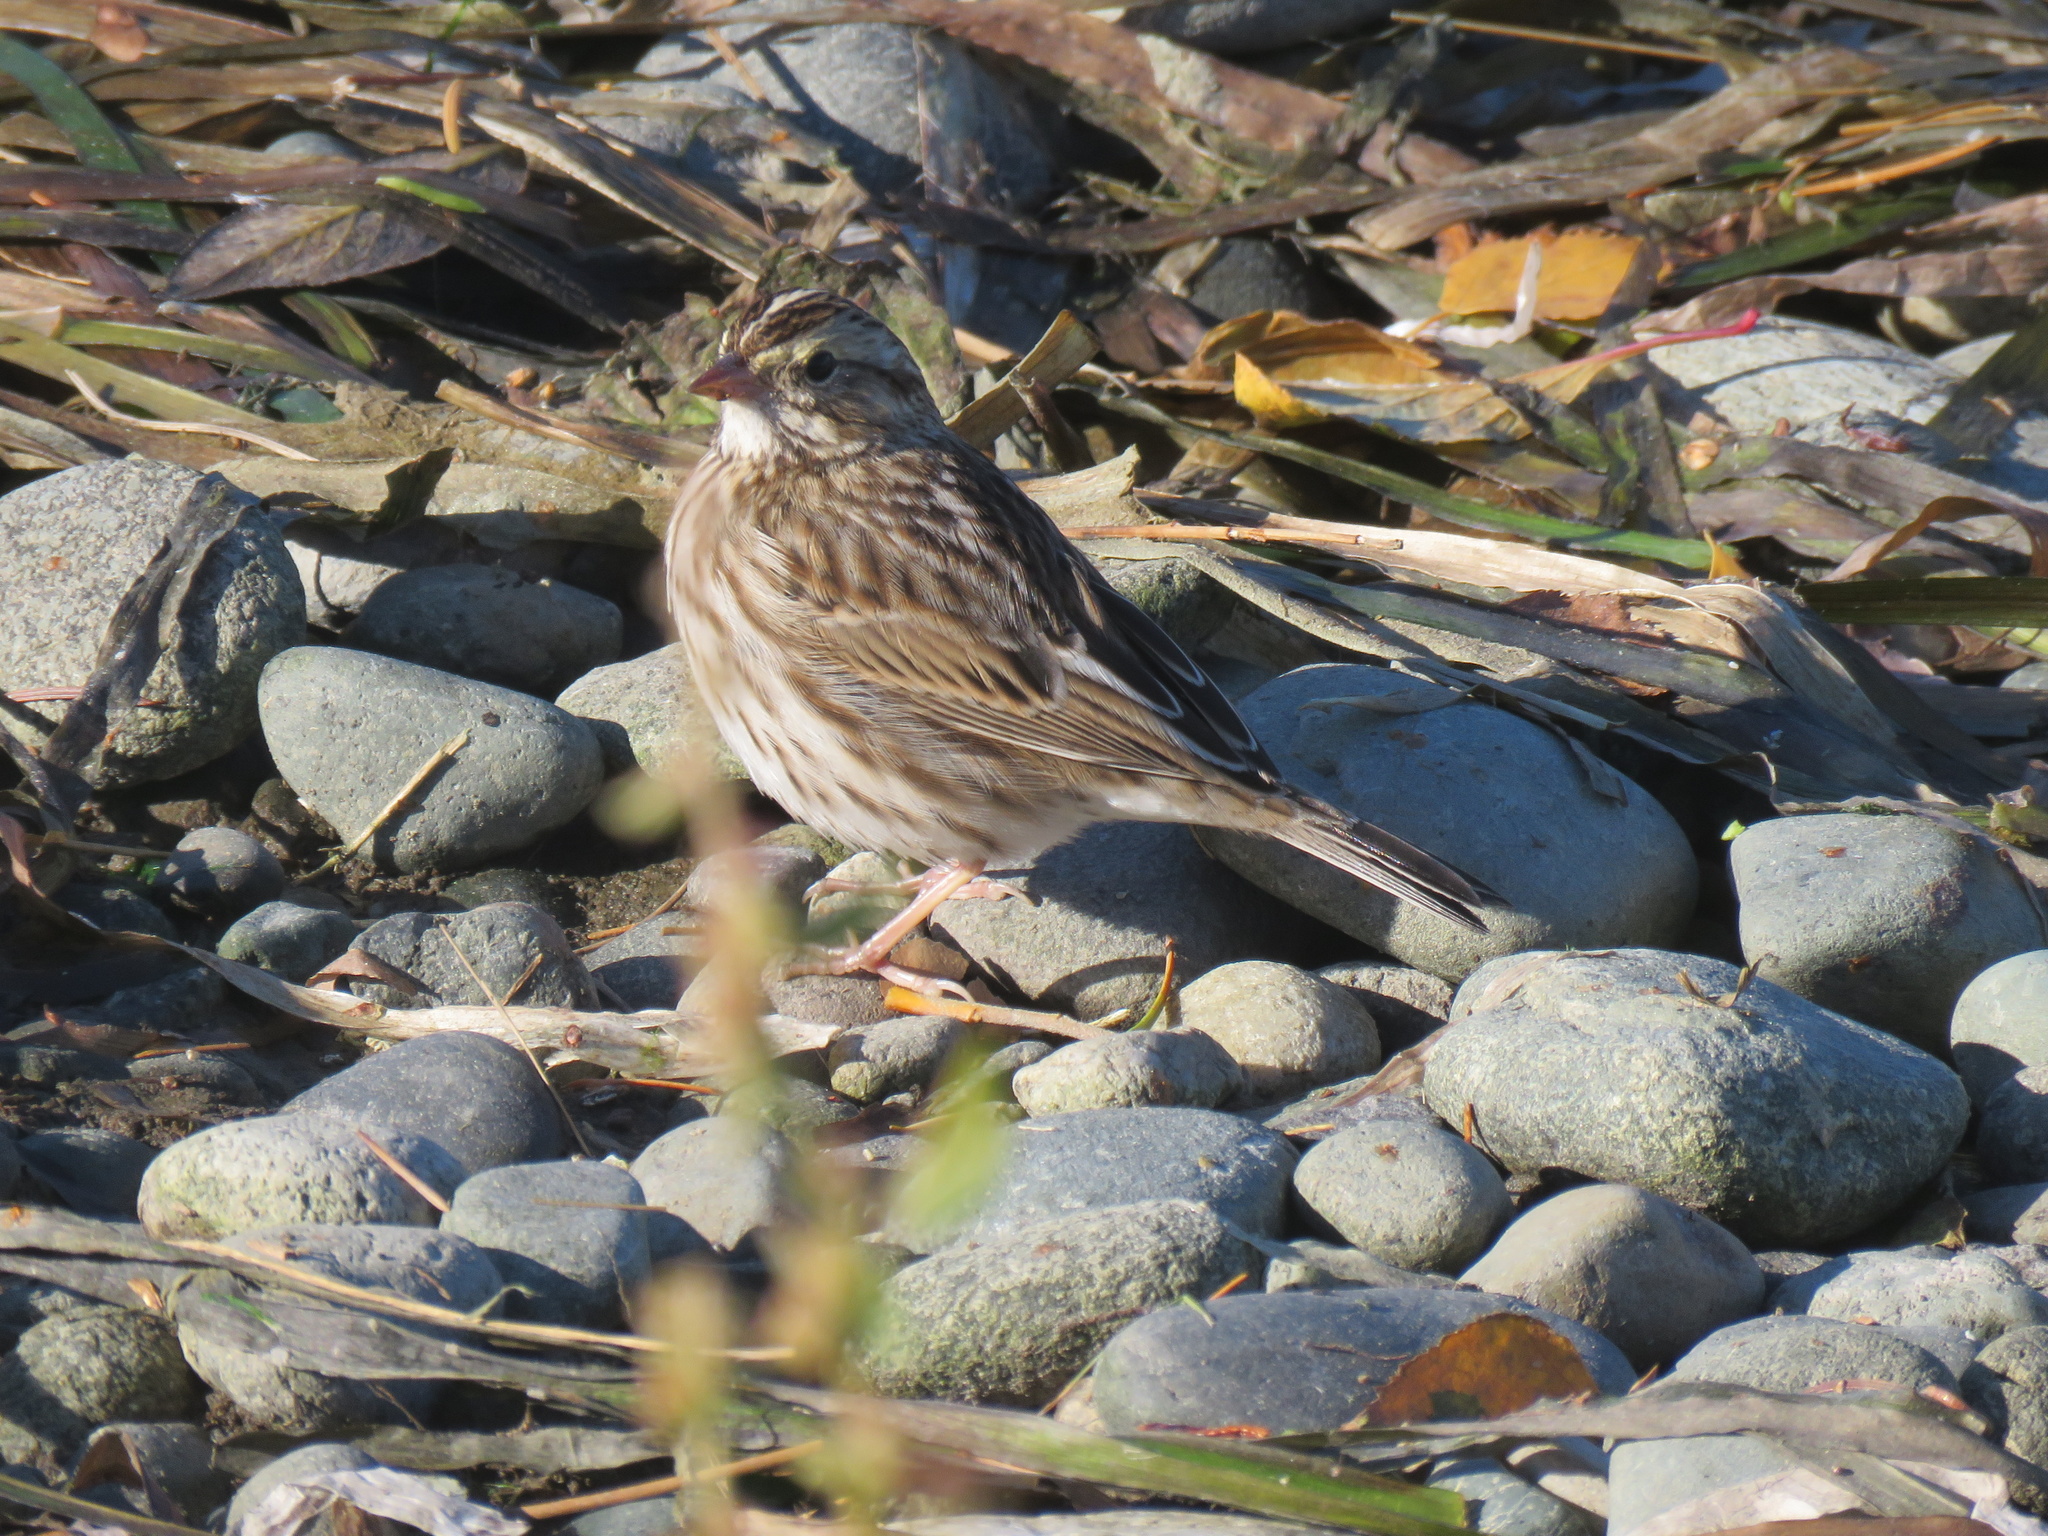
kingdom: Animalia
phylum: Chordata
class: Aves
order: Passeriformes
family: Passerellidae
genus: Passerculus
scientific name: Passerculus sandwichensis
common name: Savannah sparrow
